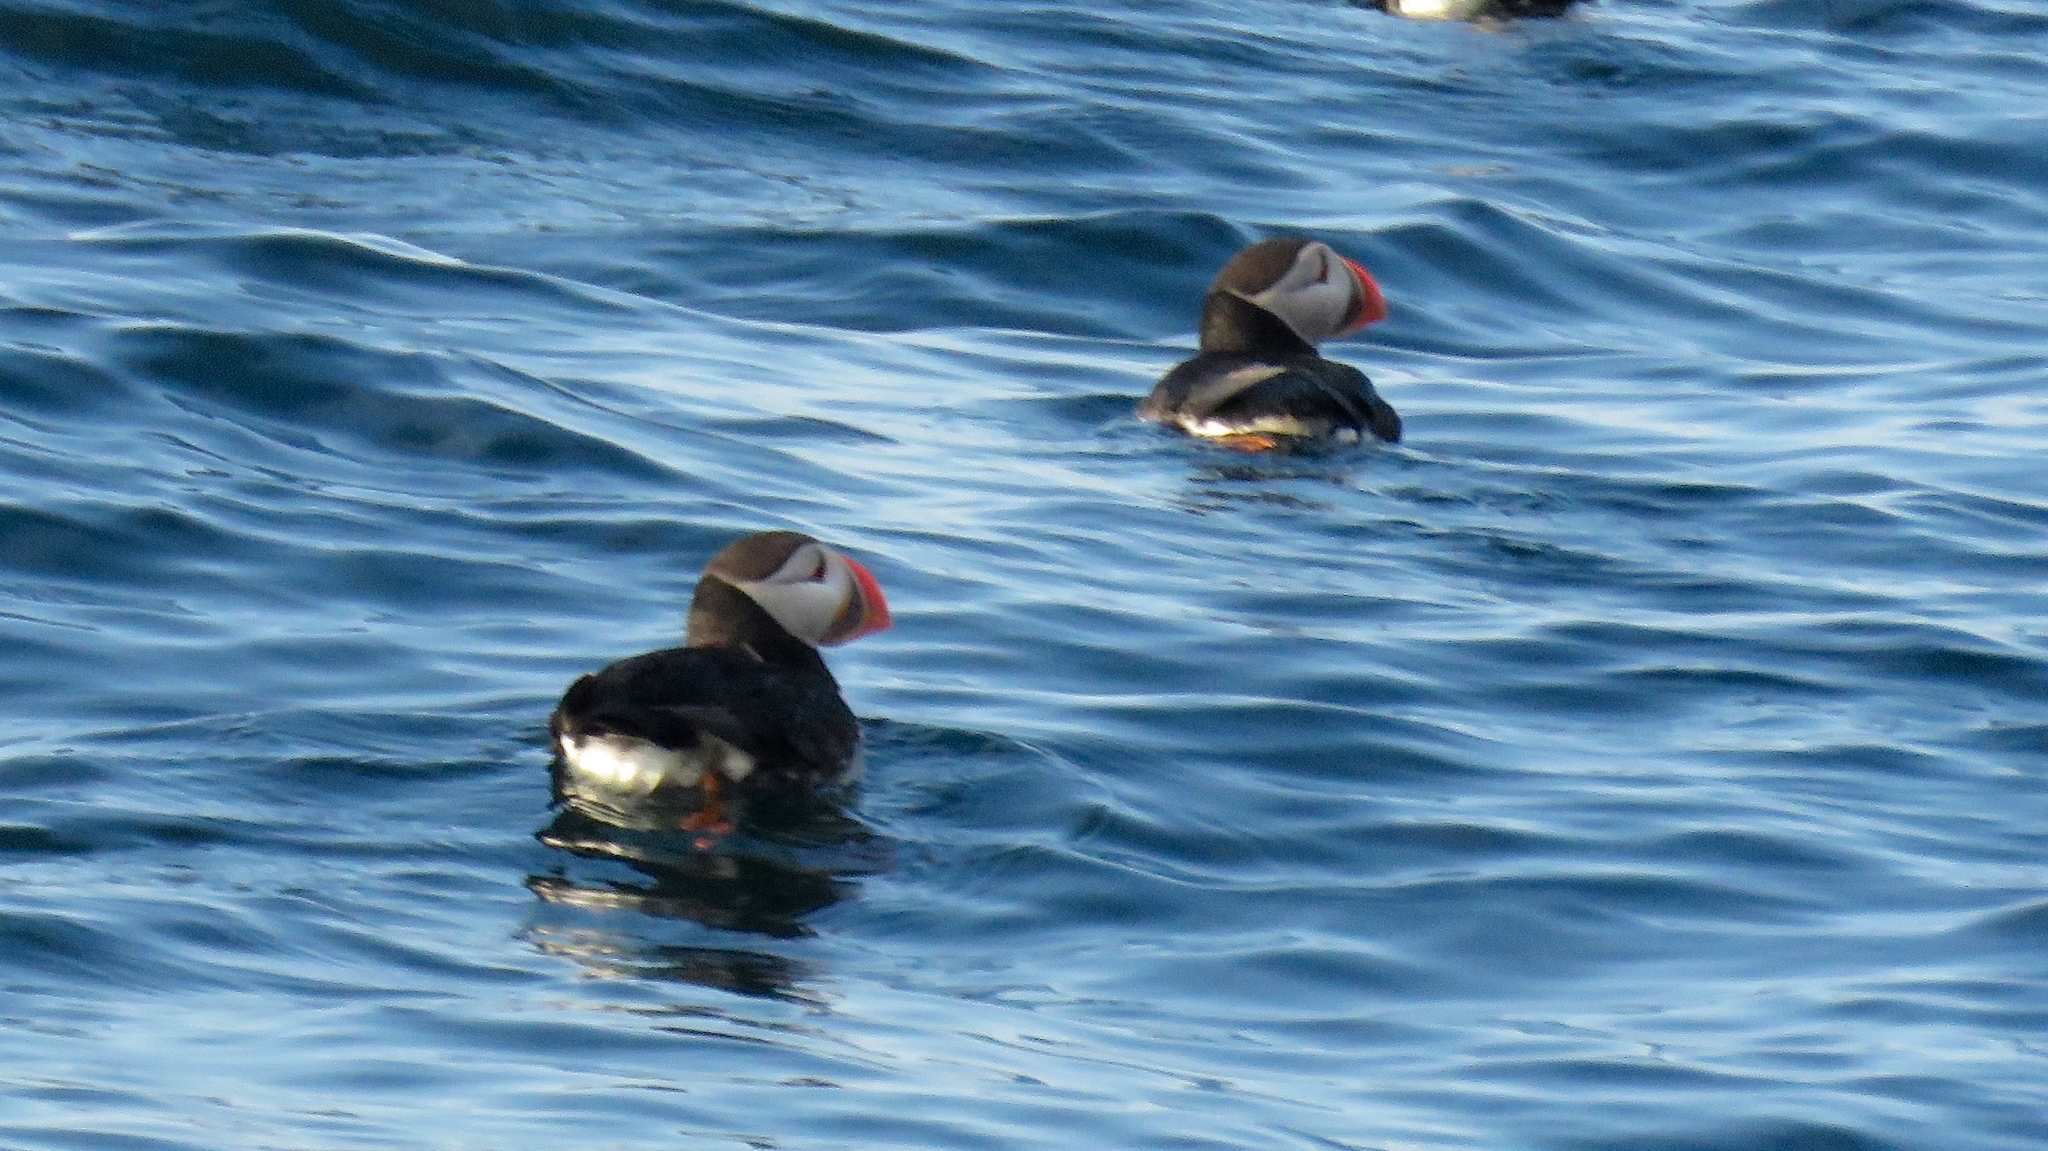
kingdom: Animalia
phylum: Chordata
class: Aves
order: Charadriiformes
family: Alcidae
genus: Fratercula
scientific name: Fratercula arctica
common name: Atlantic puffin
